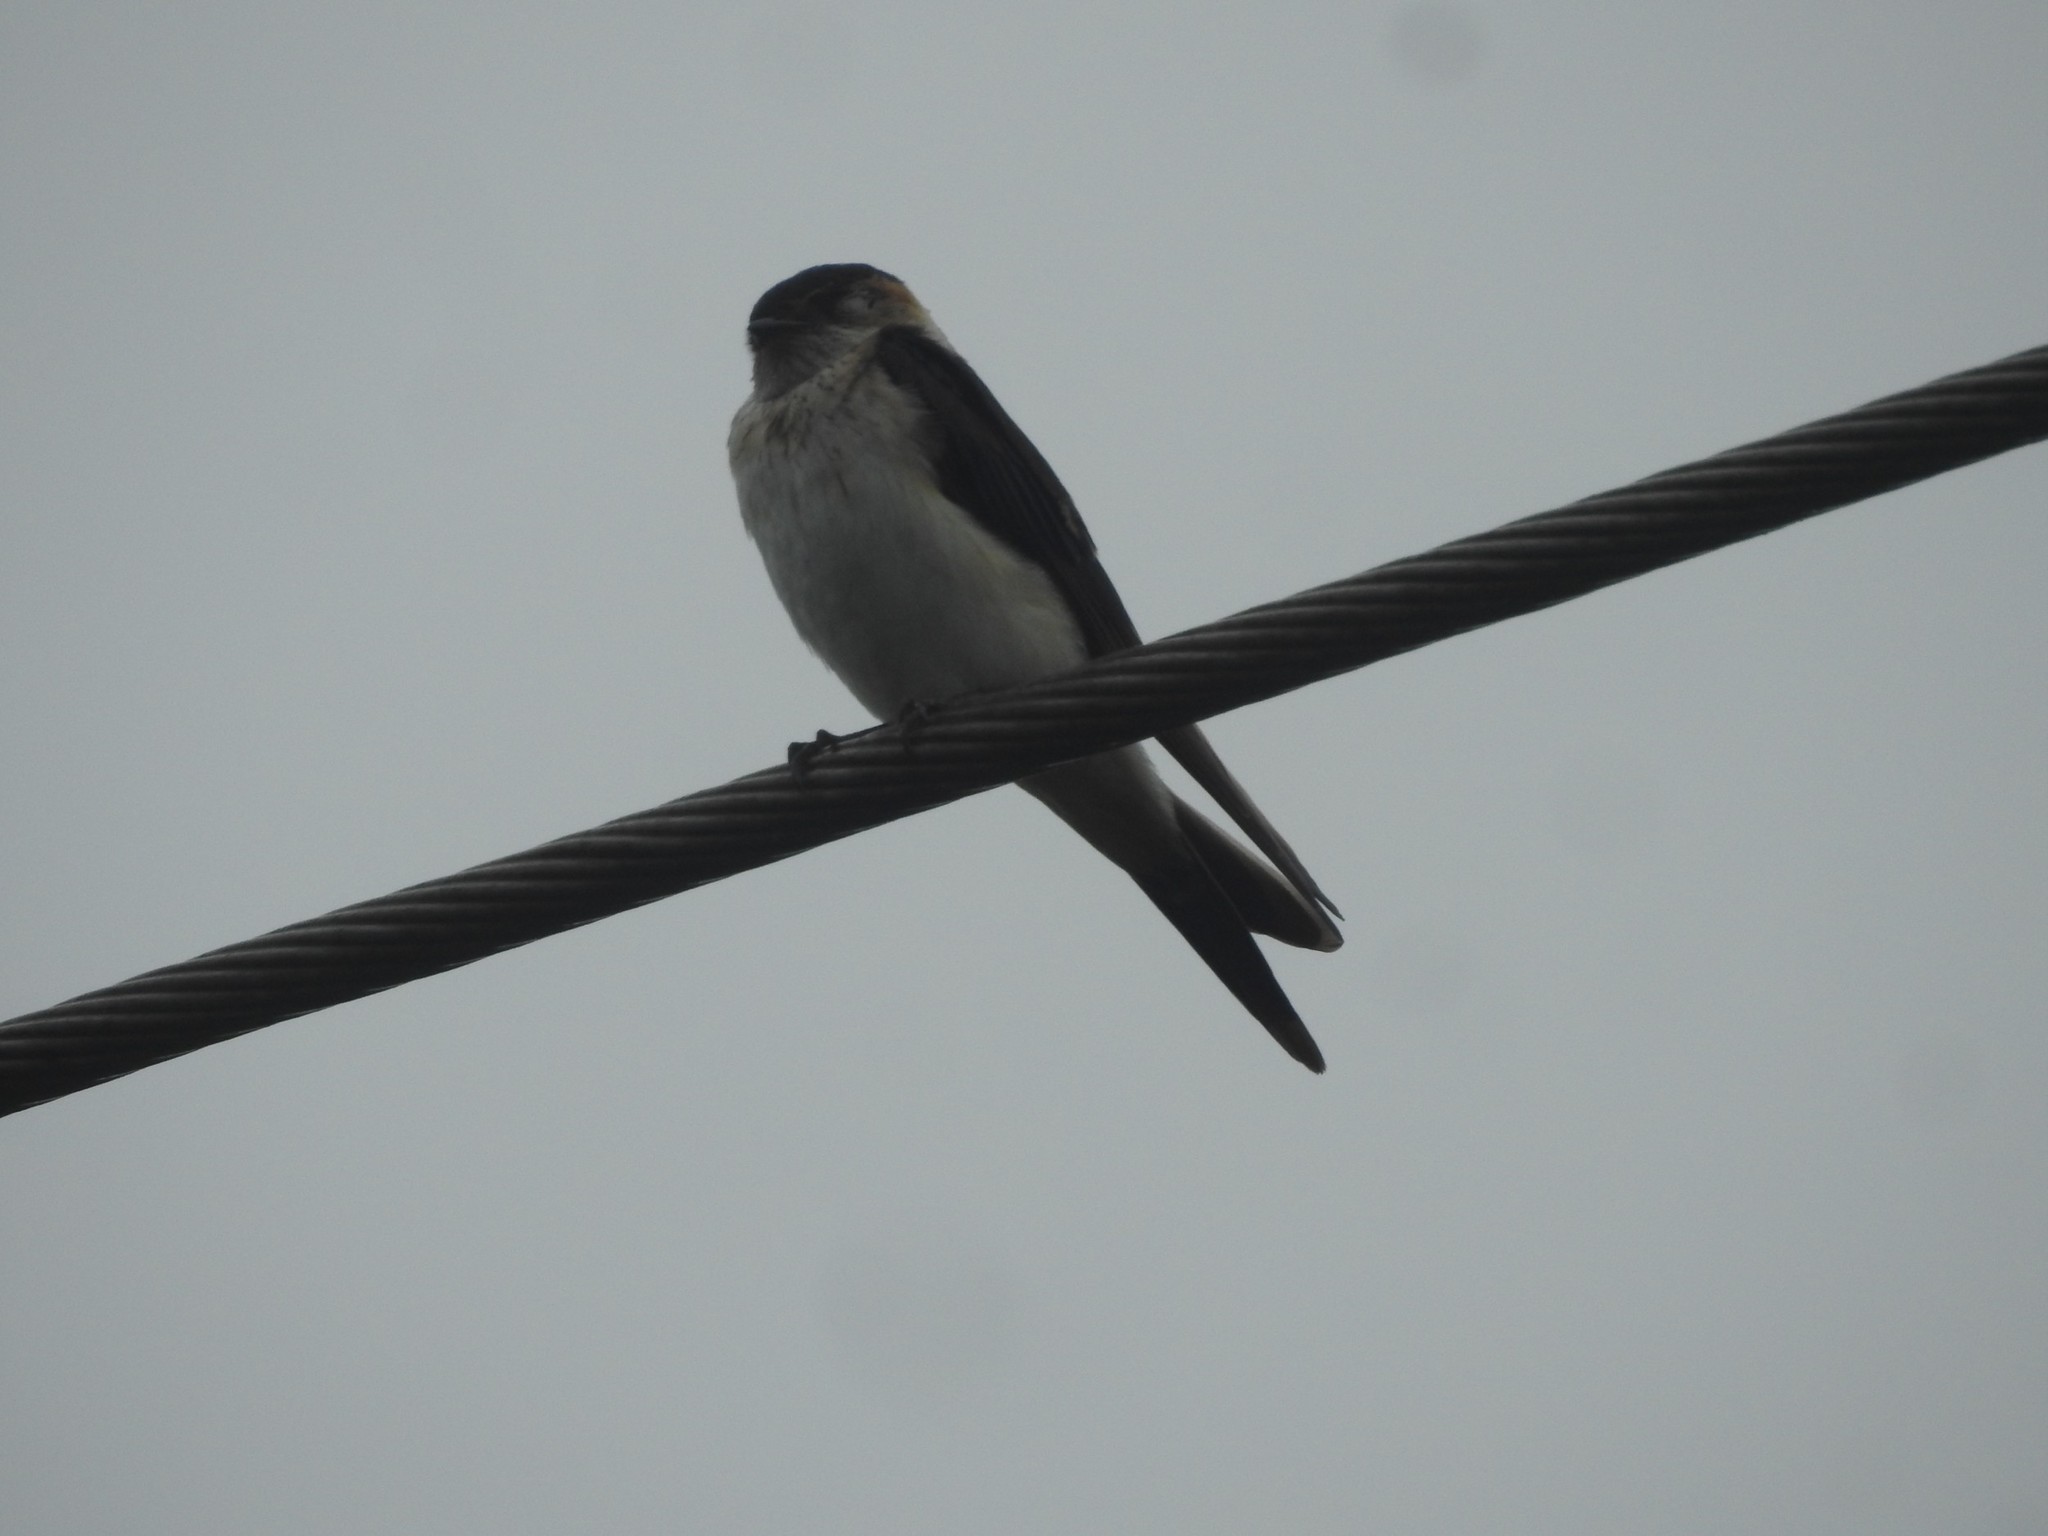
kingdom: Animalia
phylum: Chordata
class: Aves
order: Passeriformes
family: Hirundinidae
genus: Petrochelidon
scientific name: Petrochelidon fluvicola
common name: Streak-throated swallow
